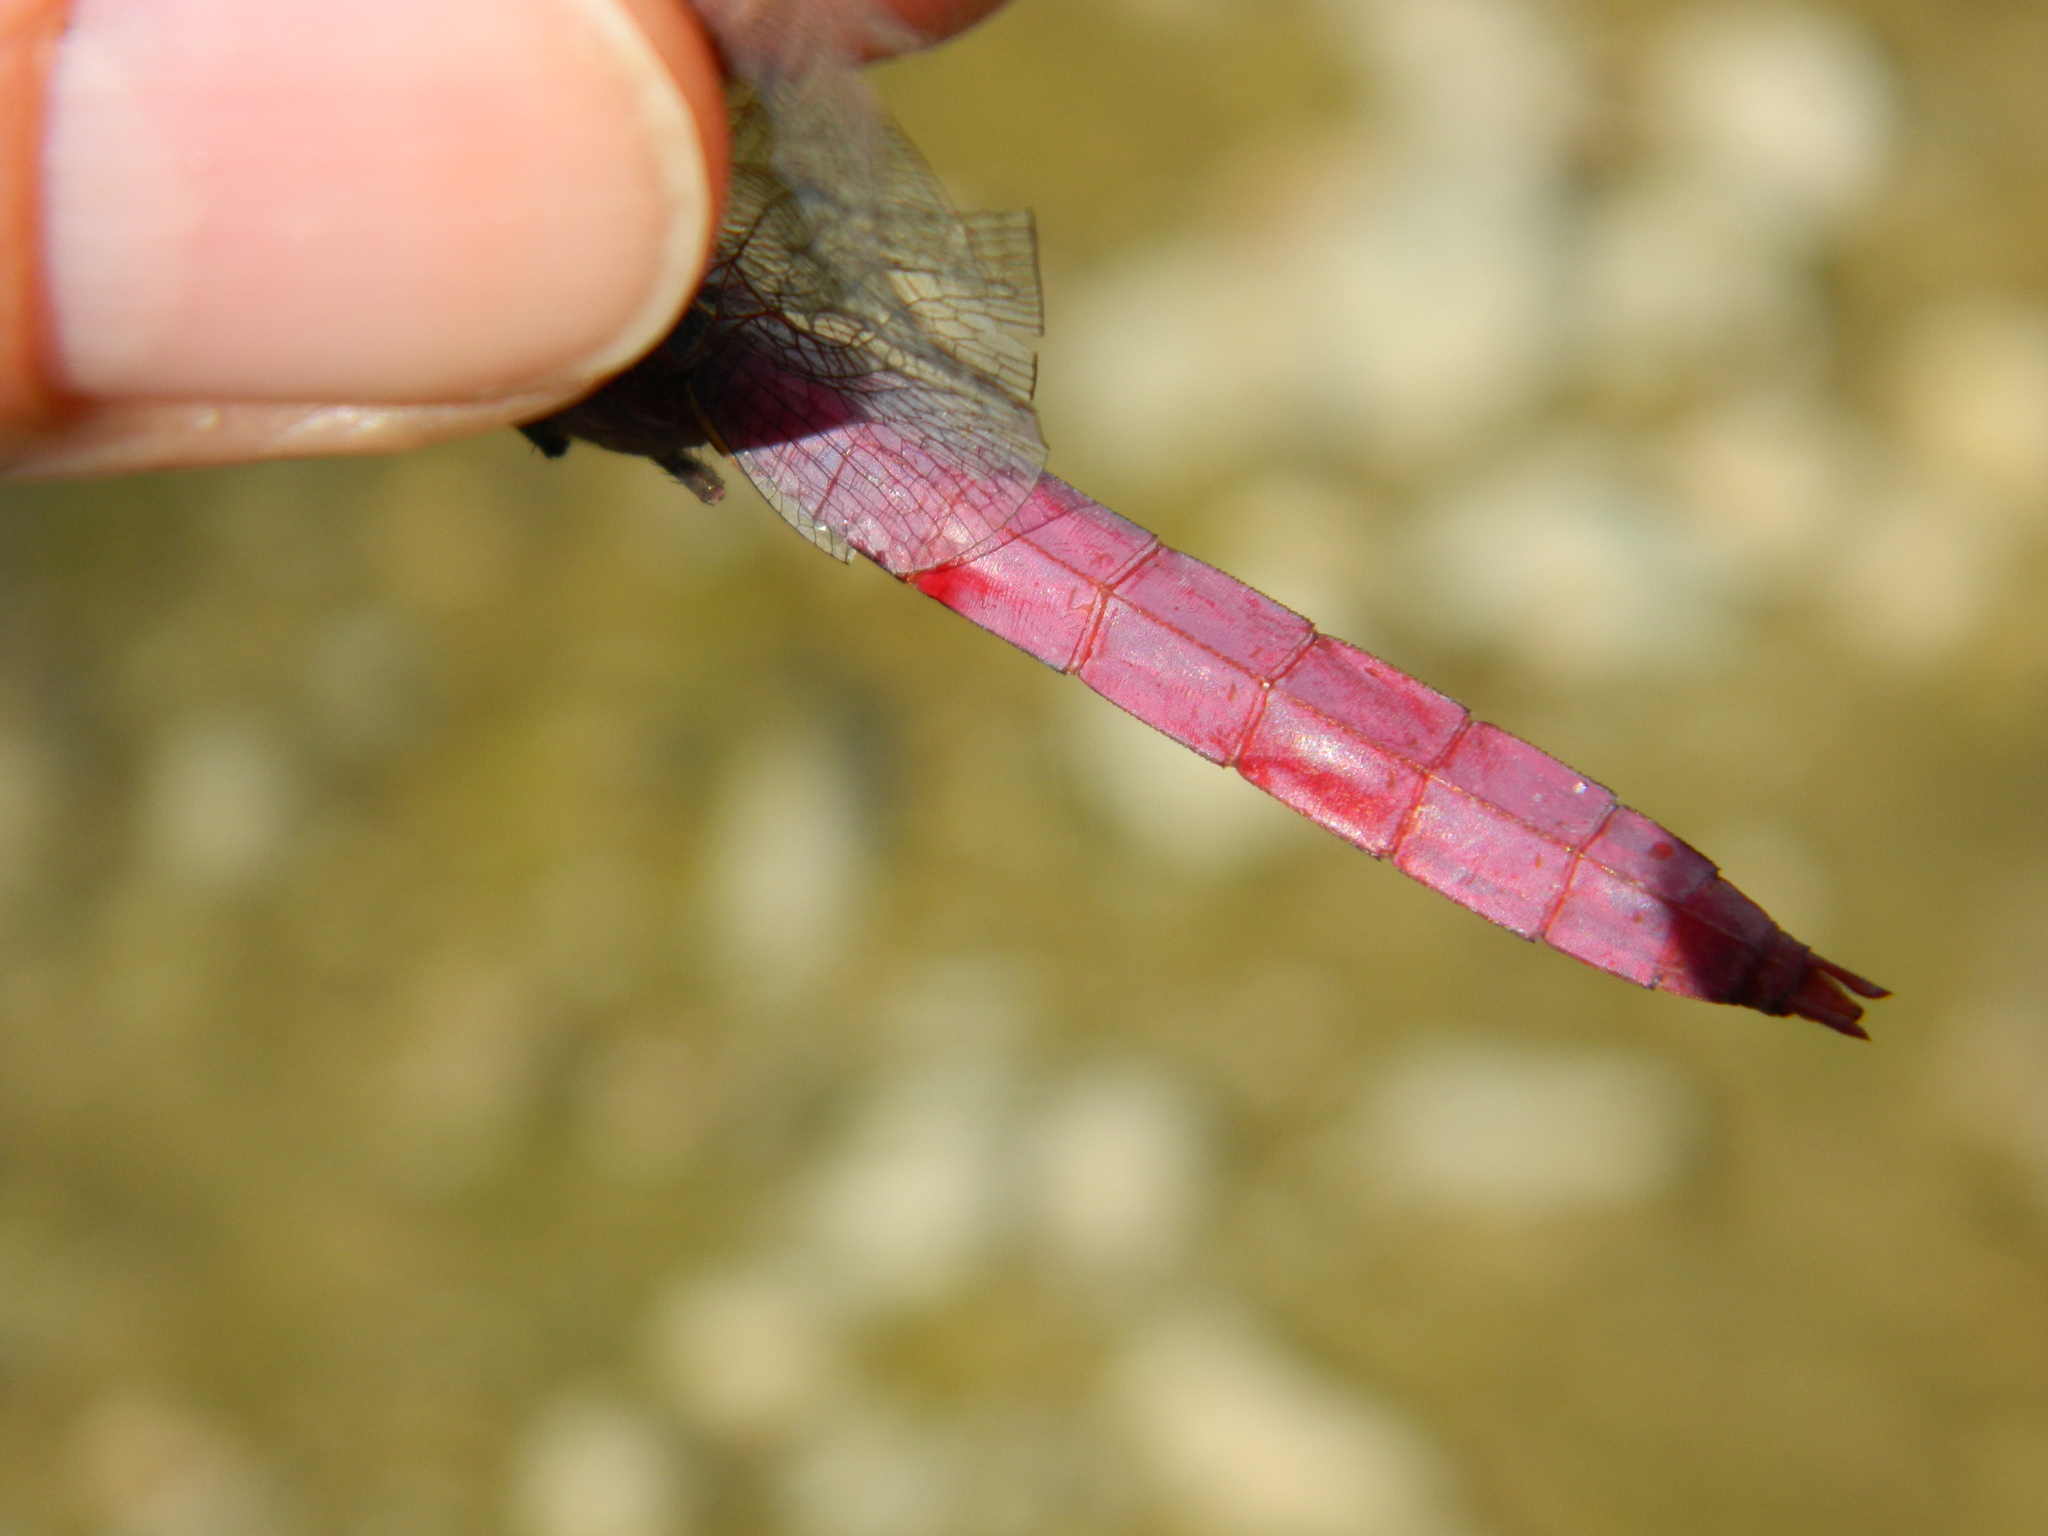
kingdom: Animalia
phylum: Arthropoda
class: Insecta
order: Odonata
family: Libellulidae
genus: Orthemis
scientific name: Orthemis ferruginea
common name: Roseate skimmer
